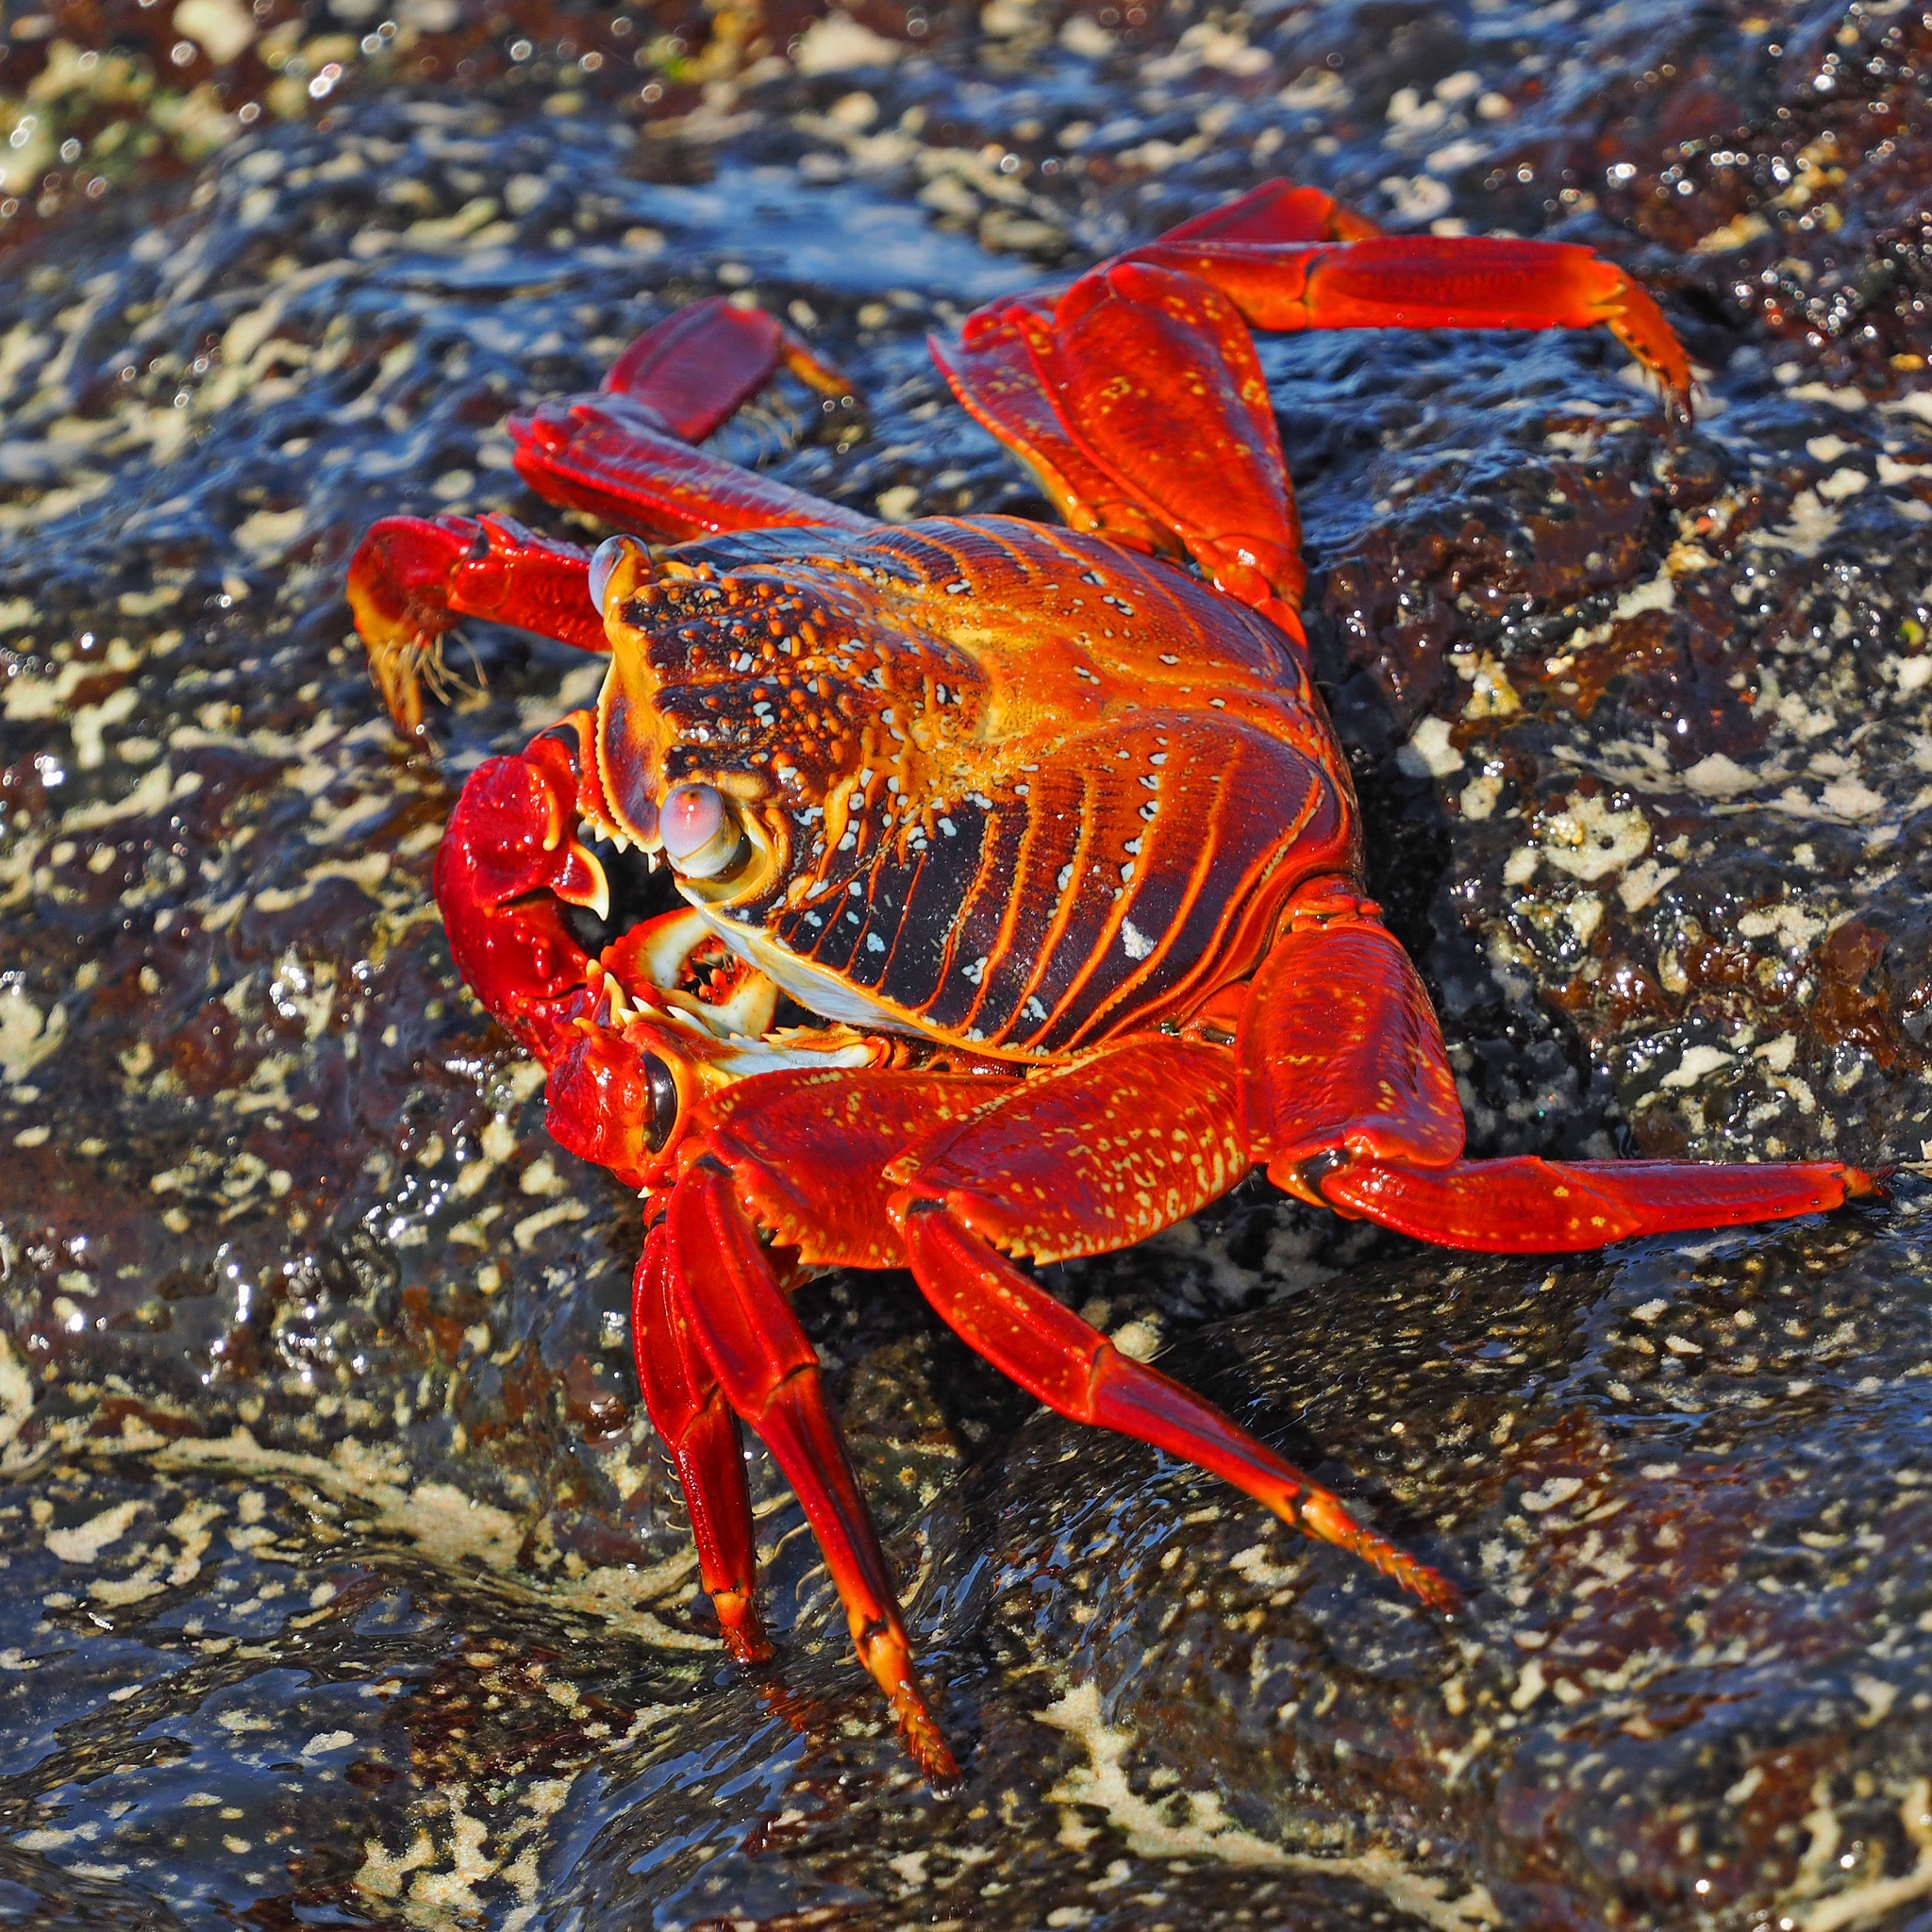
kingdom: Animalia
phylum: Arthropoda
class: Malacostraca
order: Decapoda
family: Grapsidae
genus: Grapsus
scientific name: Grapsus grapsus
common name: Sally lightfoot
